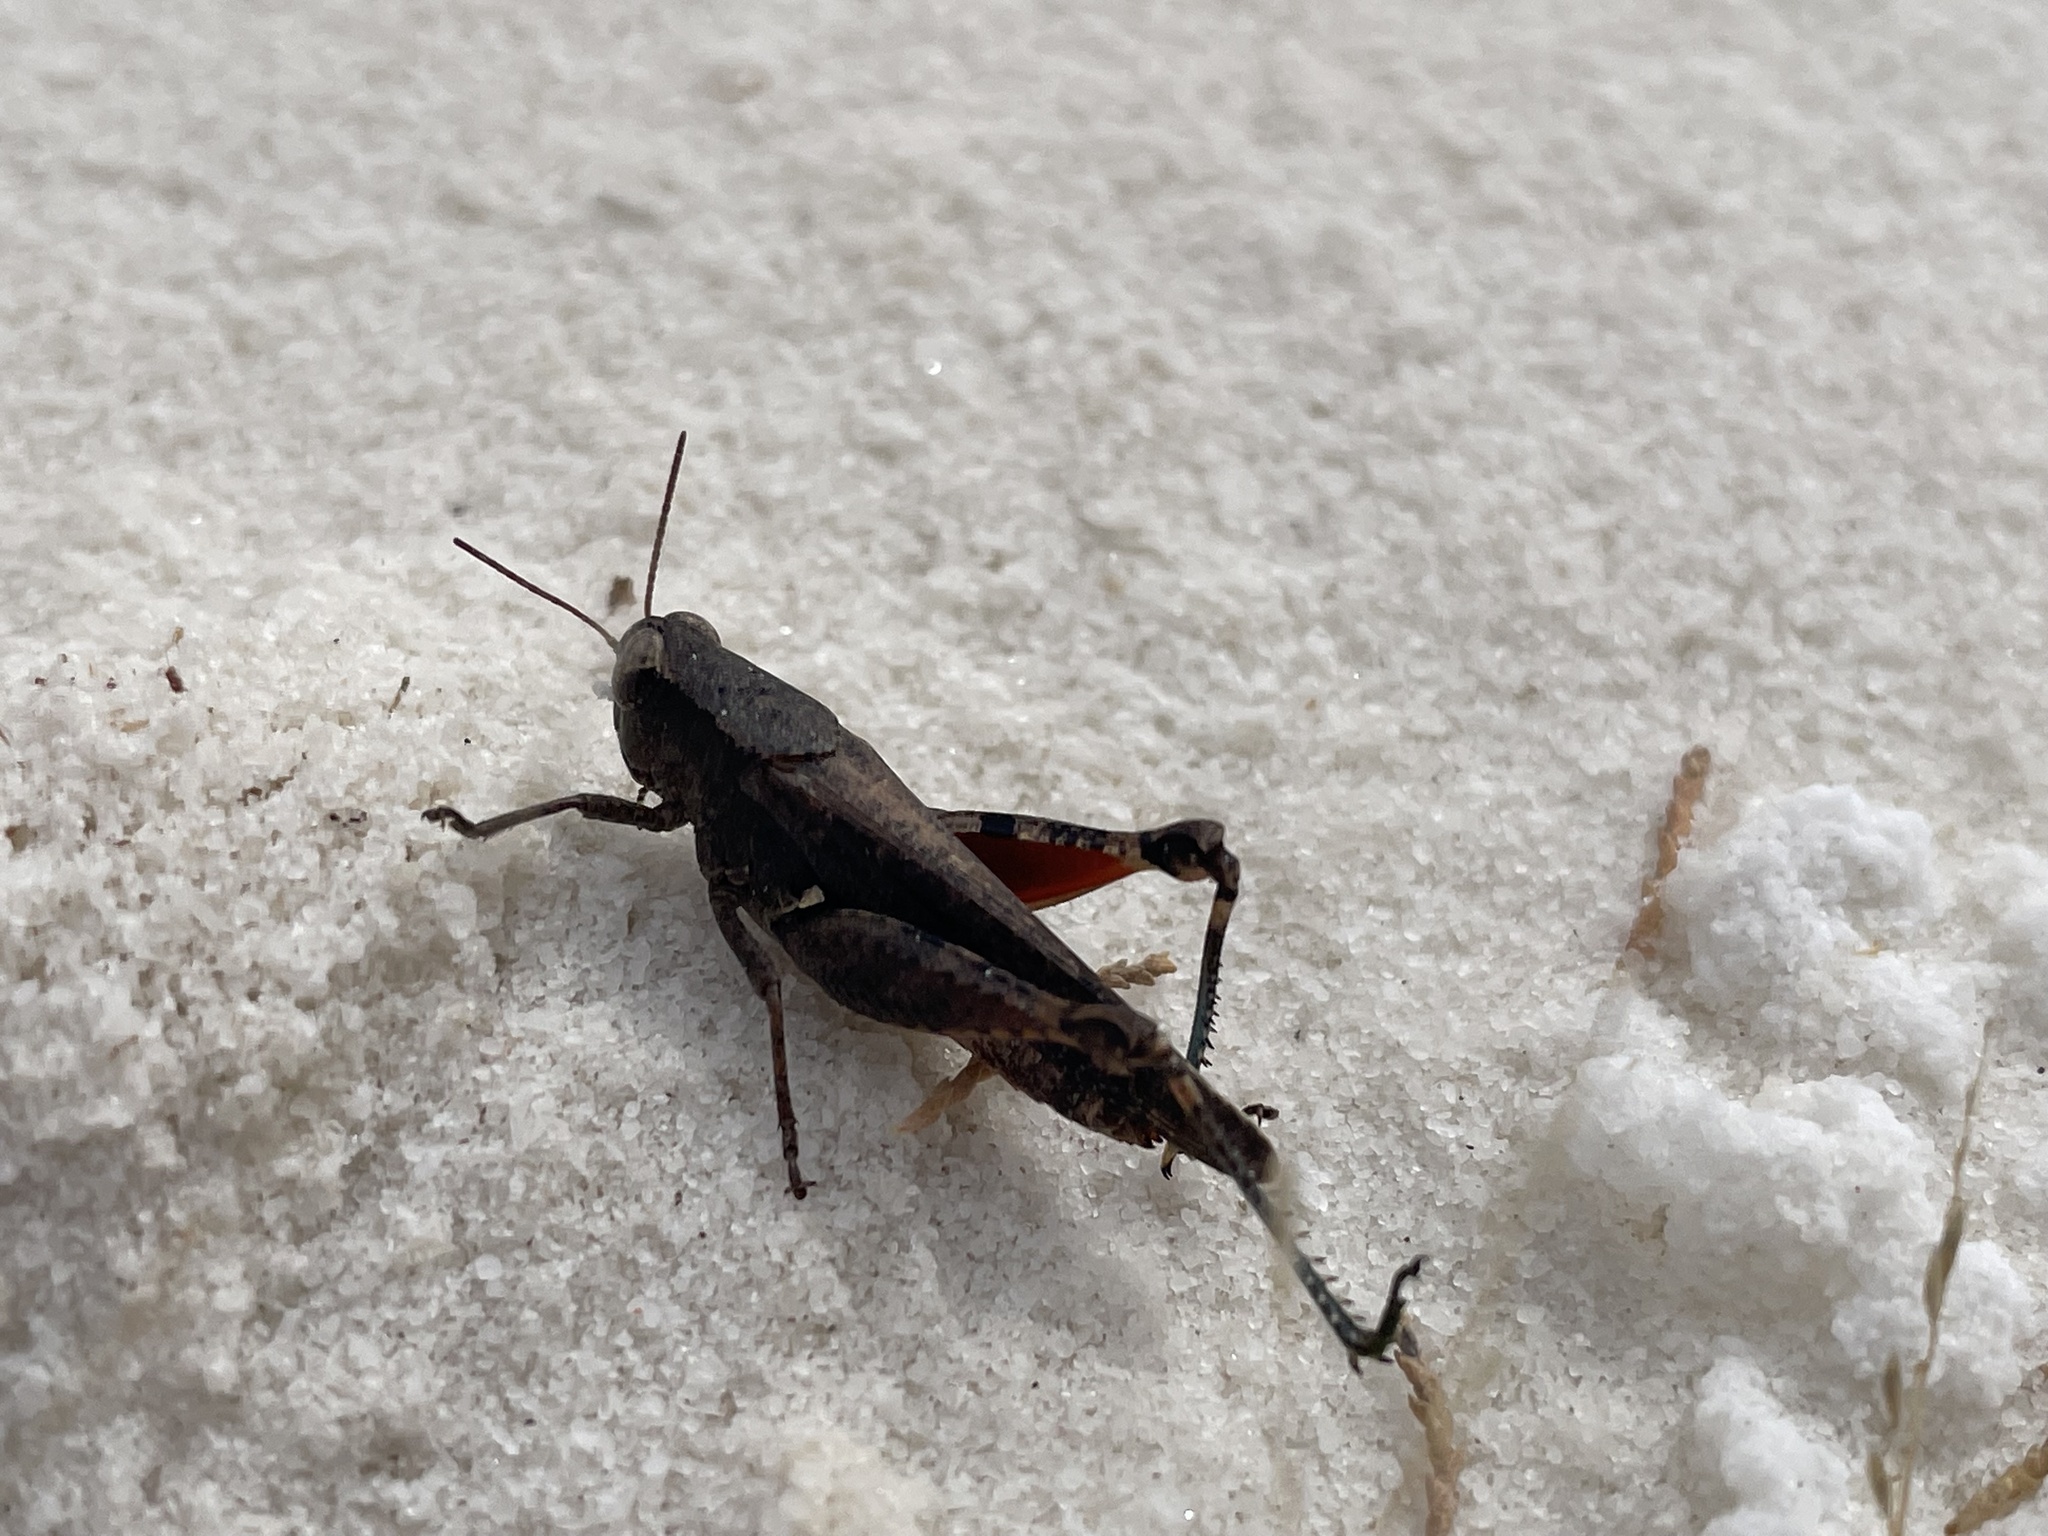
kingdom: Animalia
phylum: Arthropoda
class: Insecta
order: Orthoptera
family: Acrididae
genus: Aidemona
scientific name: Aidemona azteca
